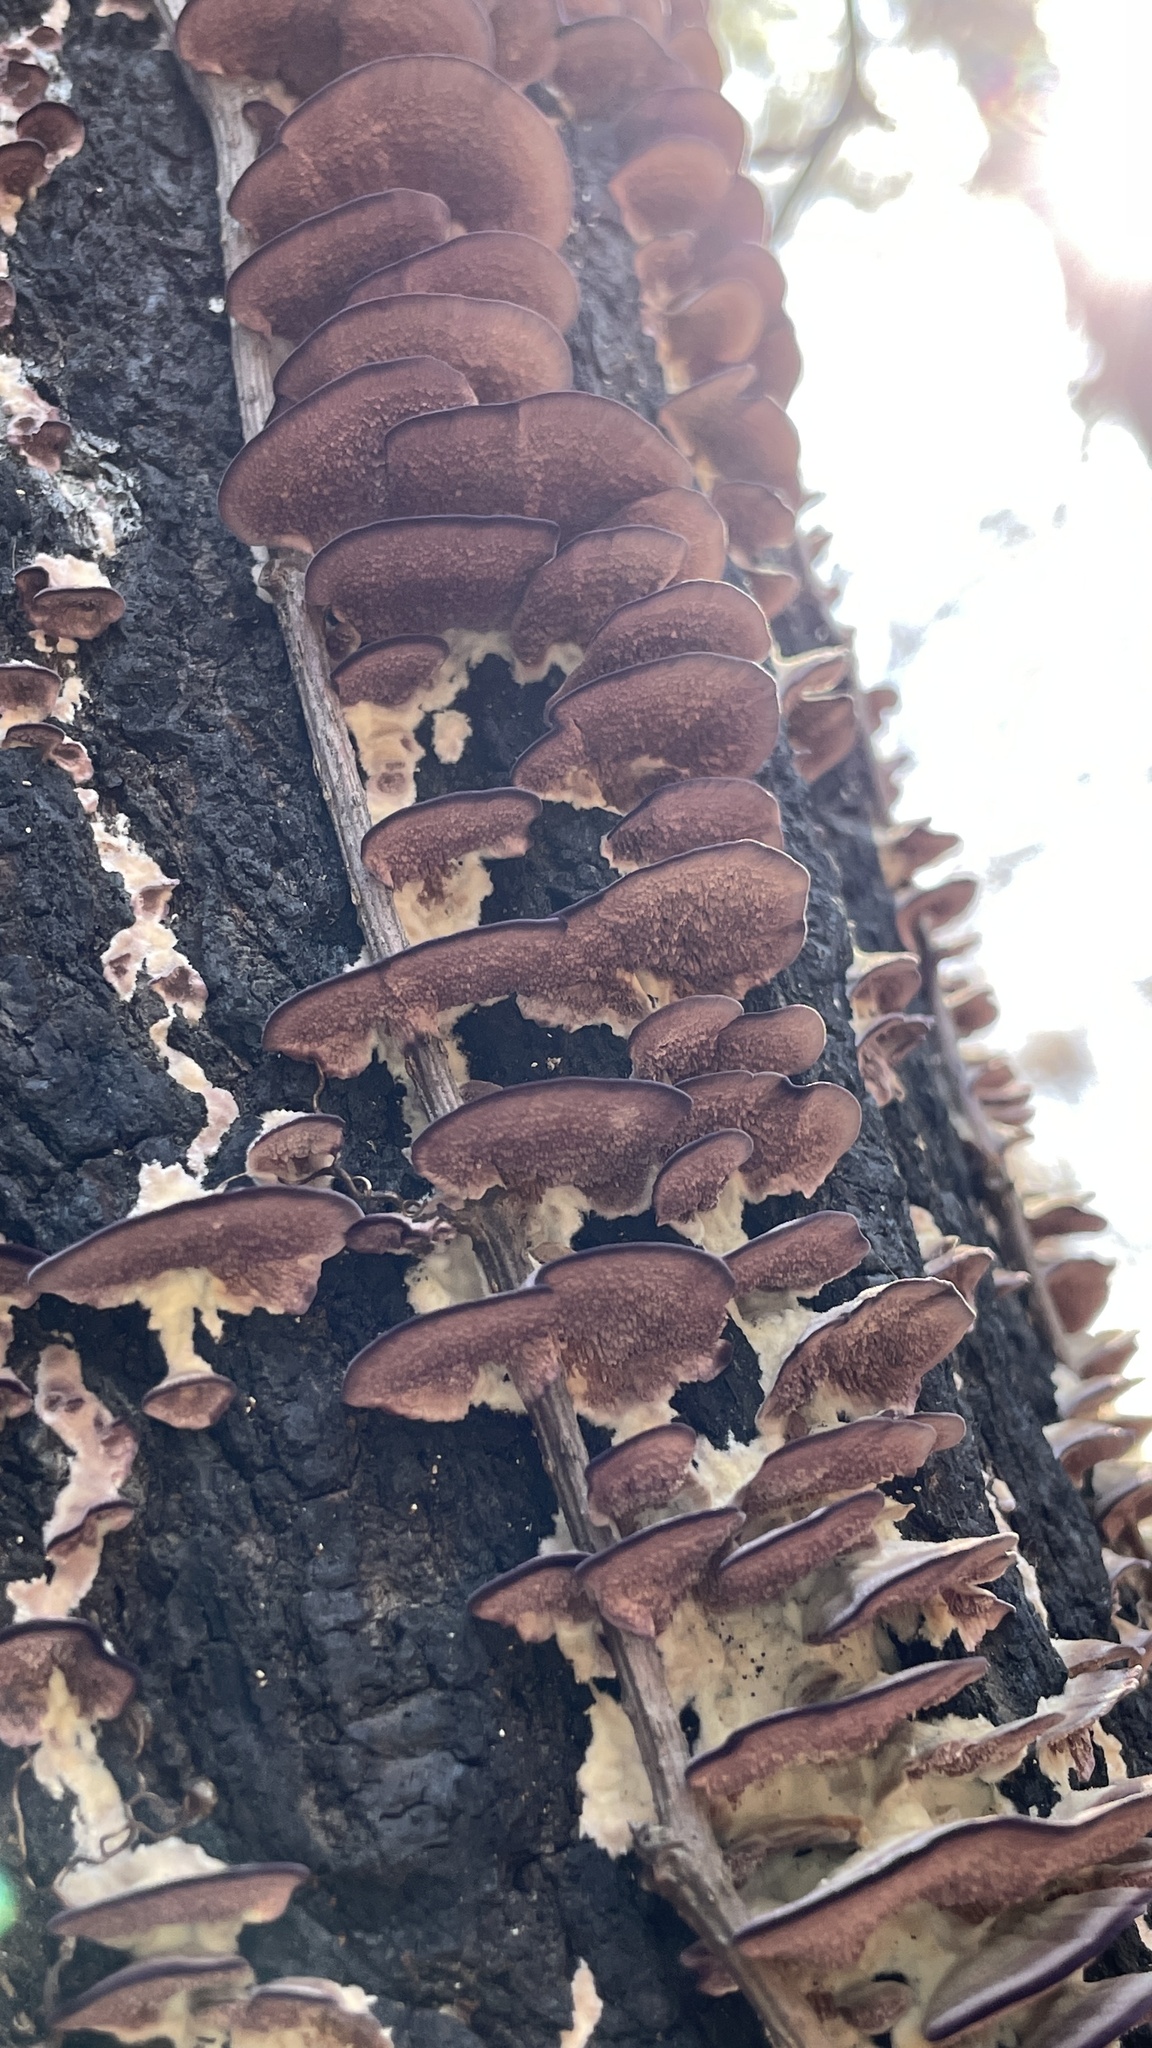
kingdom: Fungi
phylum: Basidiomycota
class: Agaricomycetes
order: Hymenochaetales
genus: Trichaptum
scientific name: Trichaptum biforme
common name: Violet-toothed polypore
